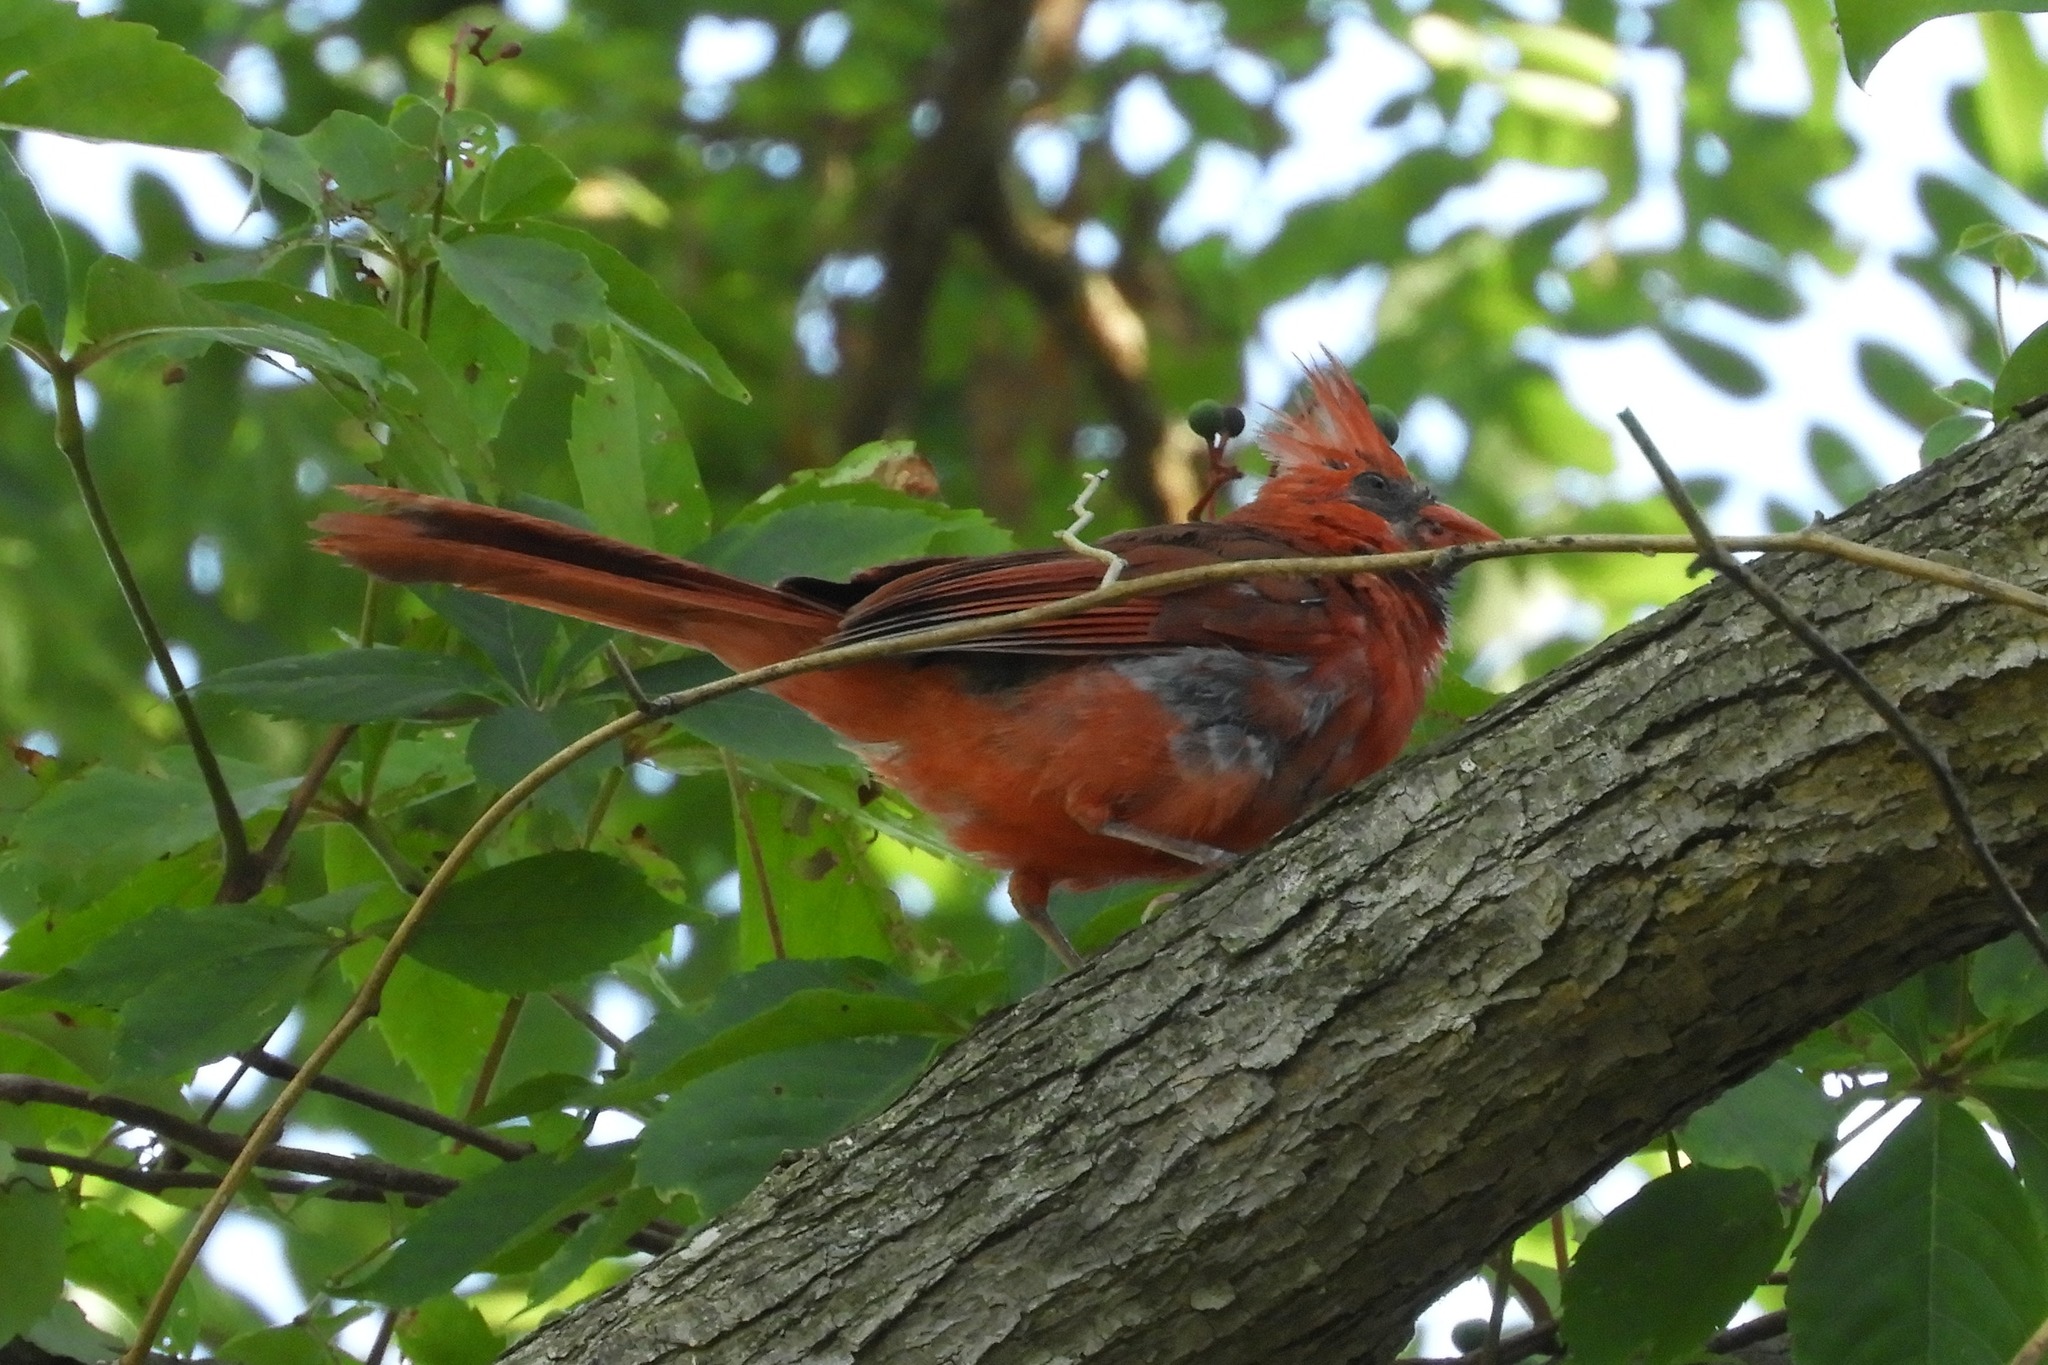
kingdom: Animalia
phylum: Chordata
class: Aves
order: Passeriformes
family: Cardinalidae
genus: Cardinalis
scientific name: Cardinalis cardinalis
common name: Northern cardinal
